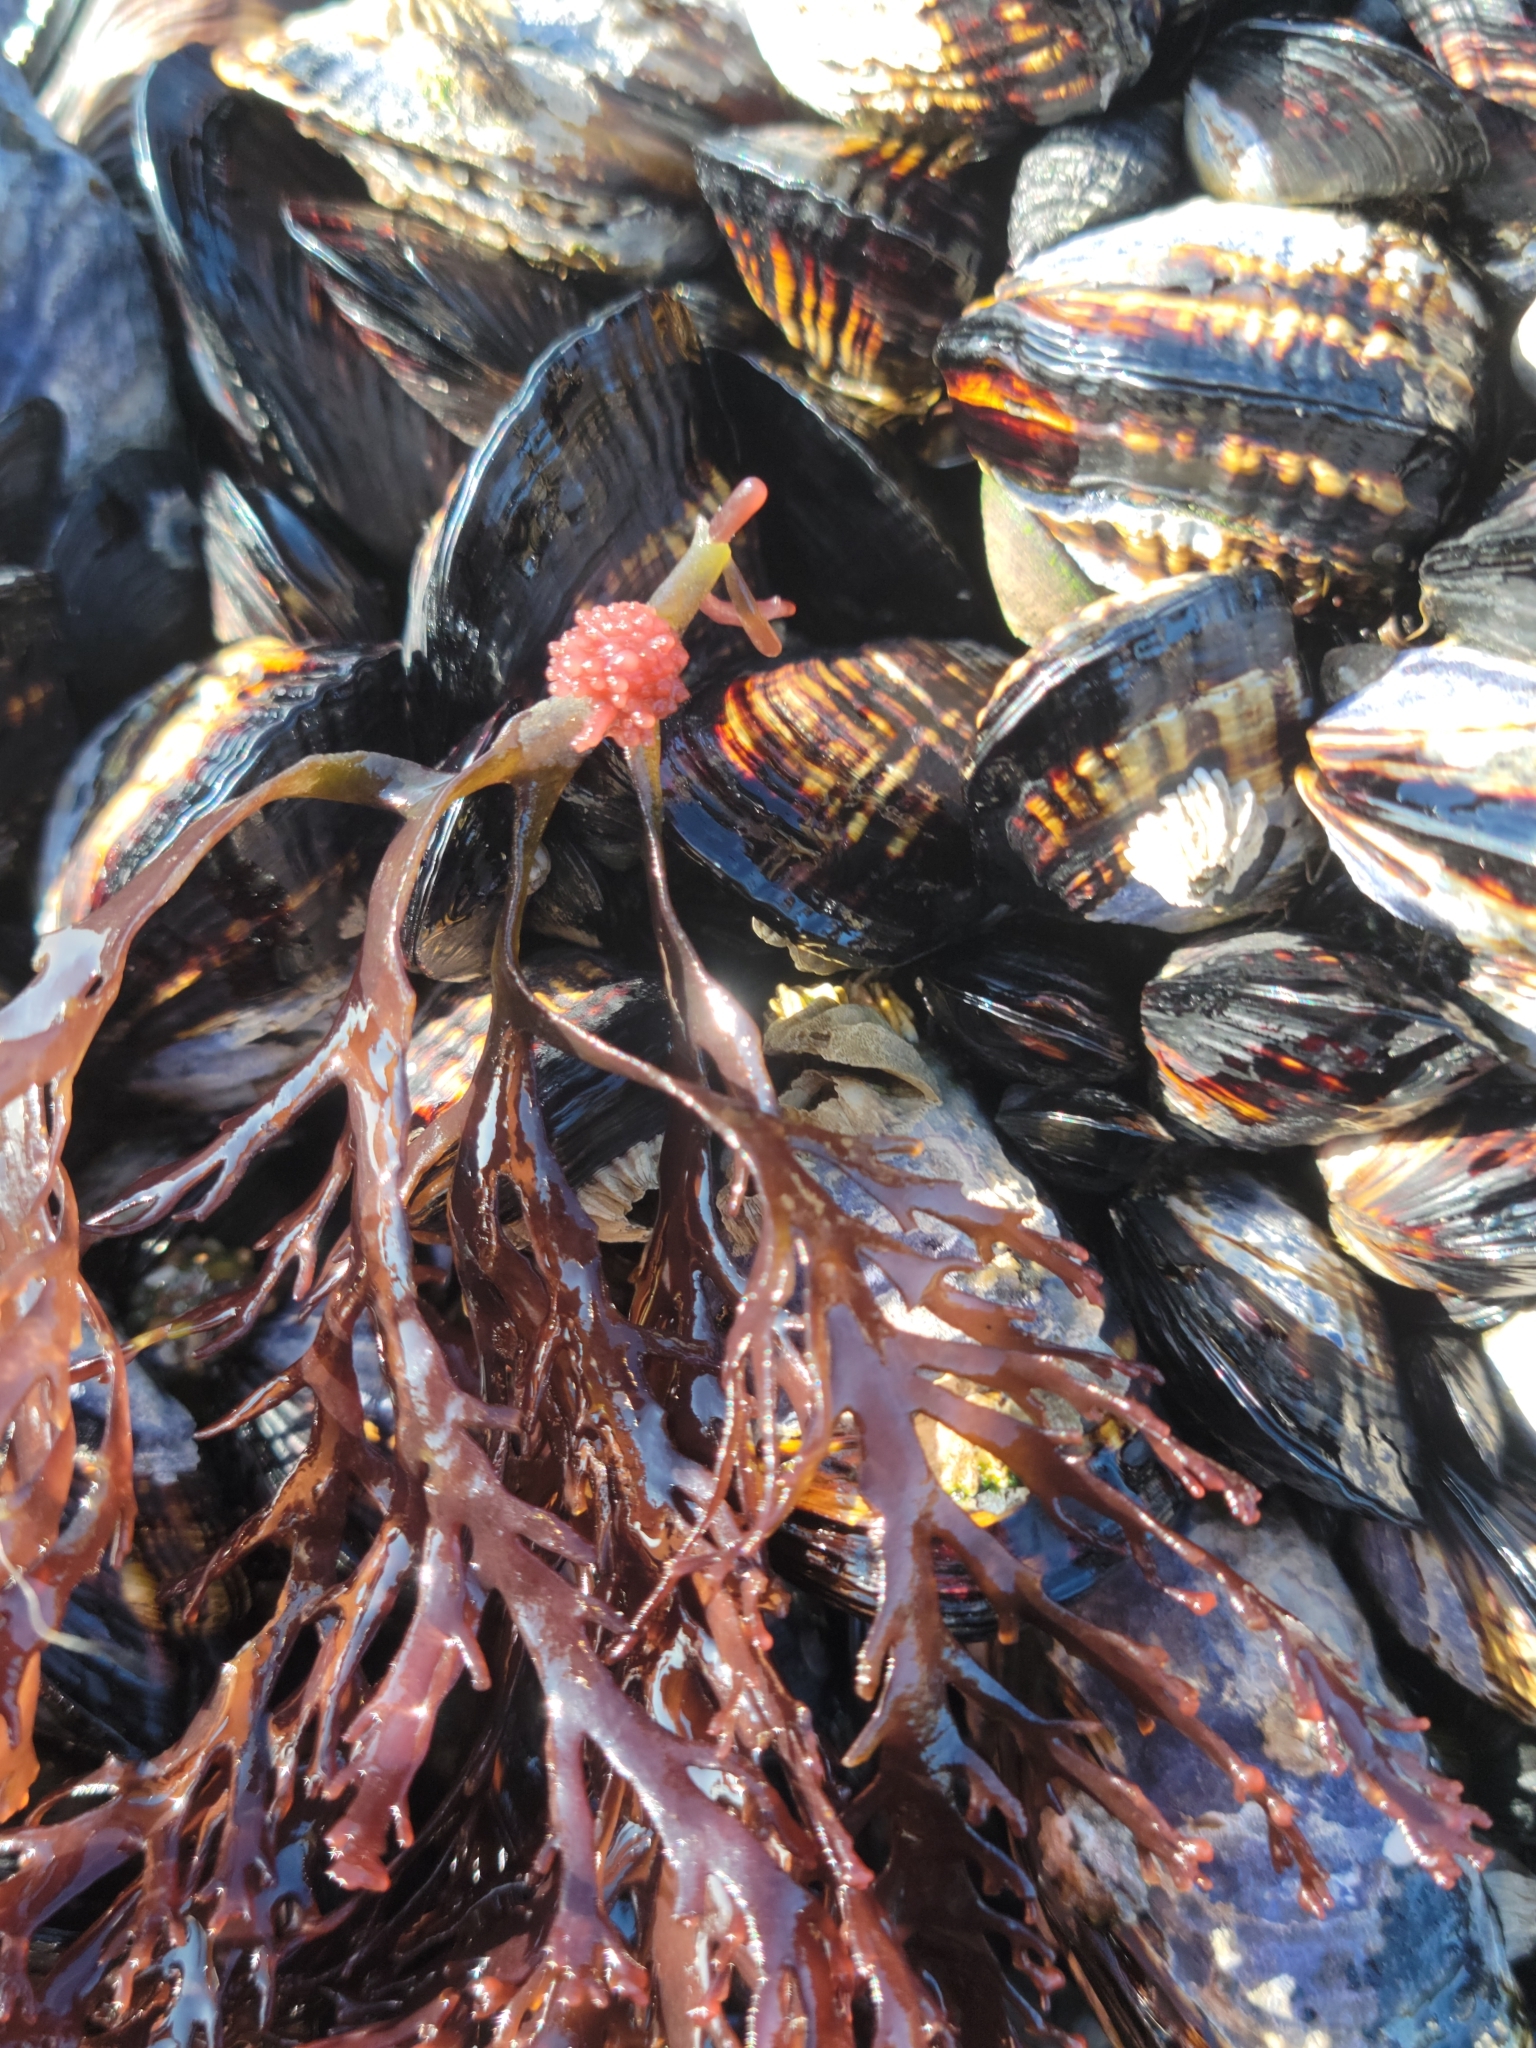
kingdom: Plantae
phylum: Rhodophyta
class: Florideophyceae
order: Ceramiales
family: Rhodomelaceae
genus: Janczewskia
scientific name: Janczewskia gardneri
